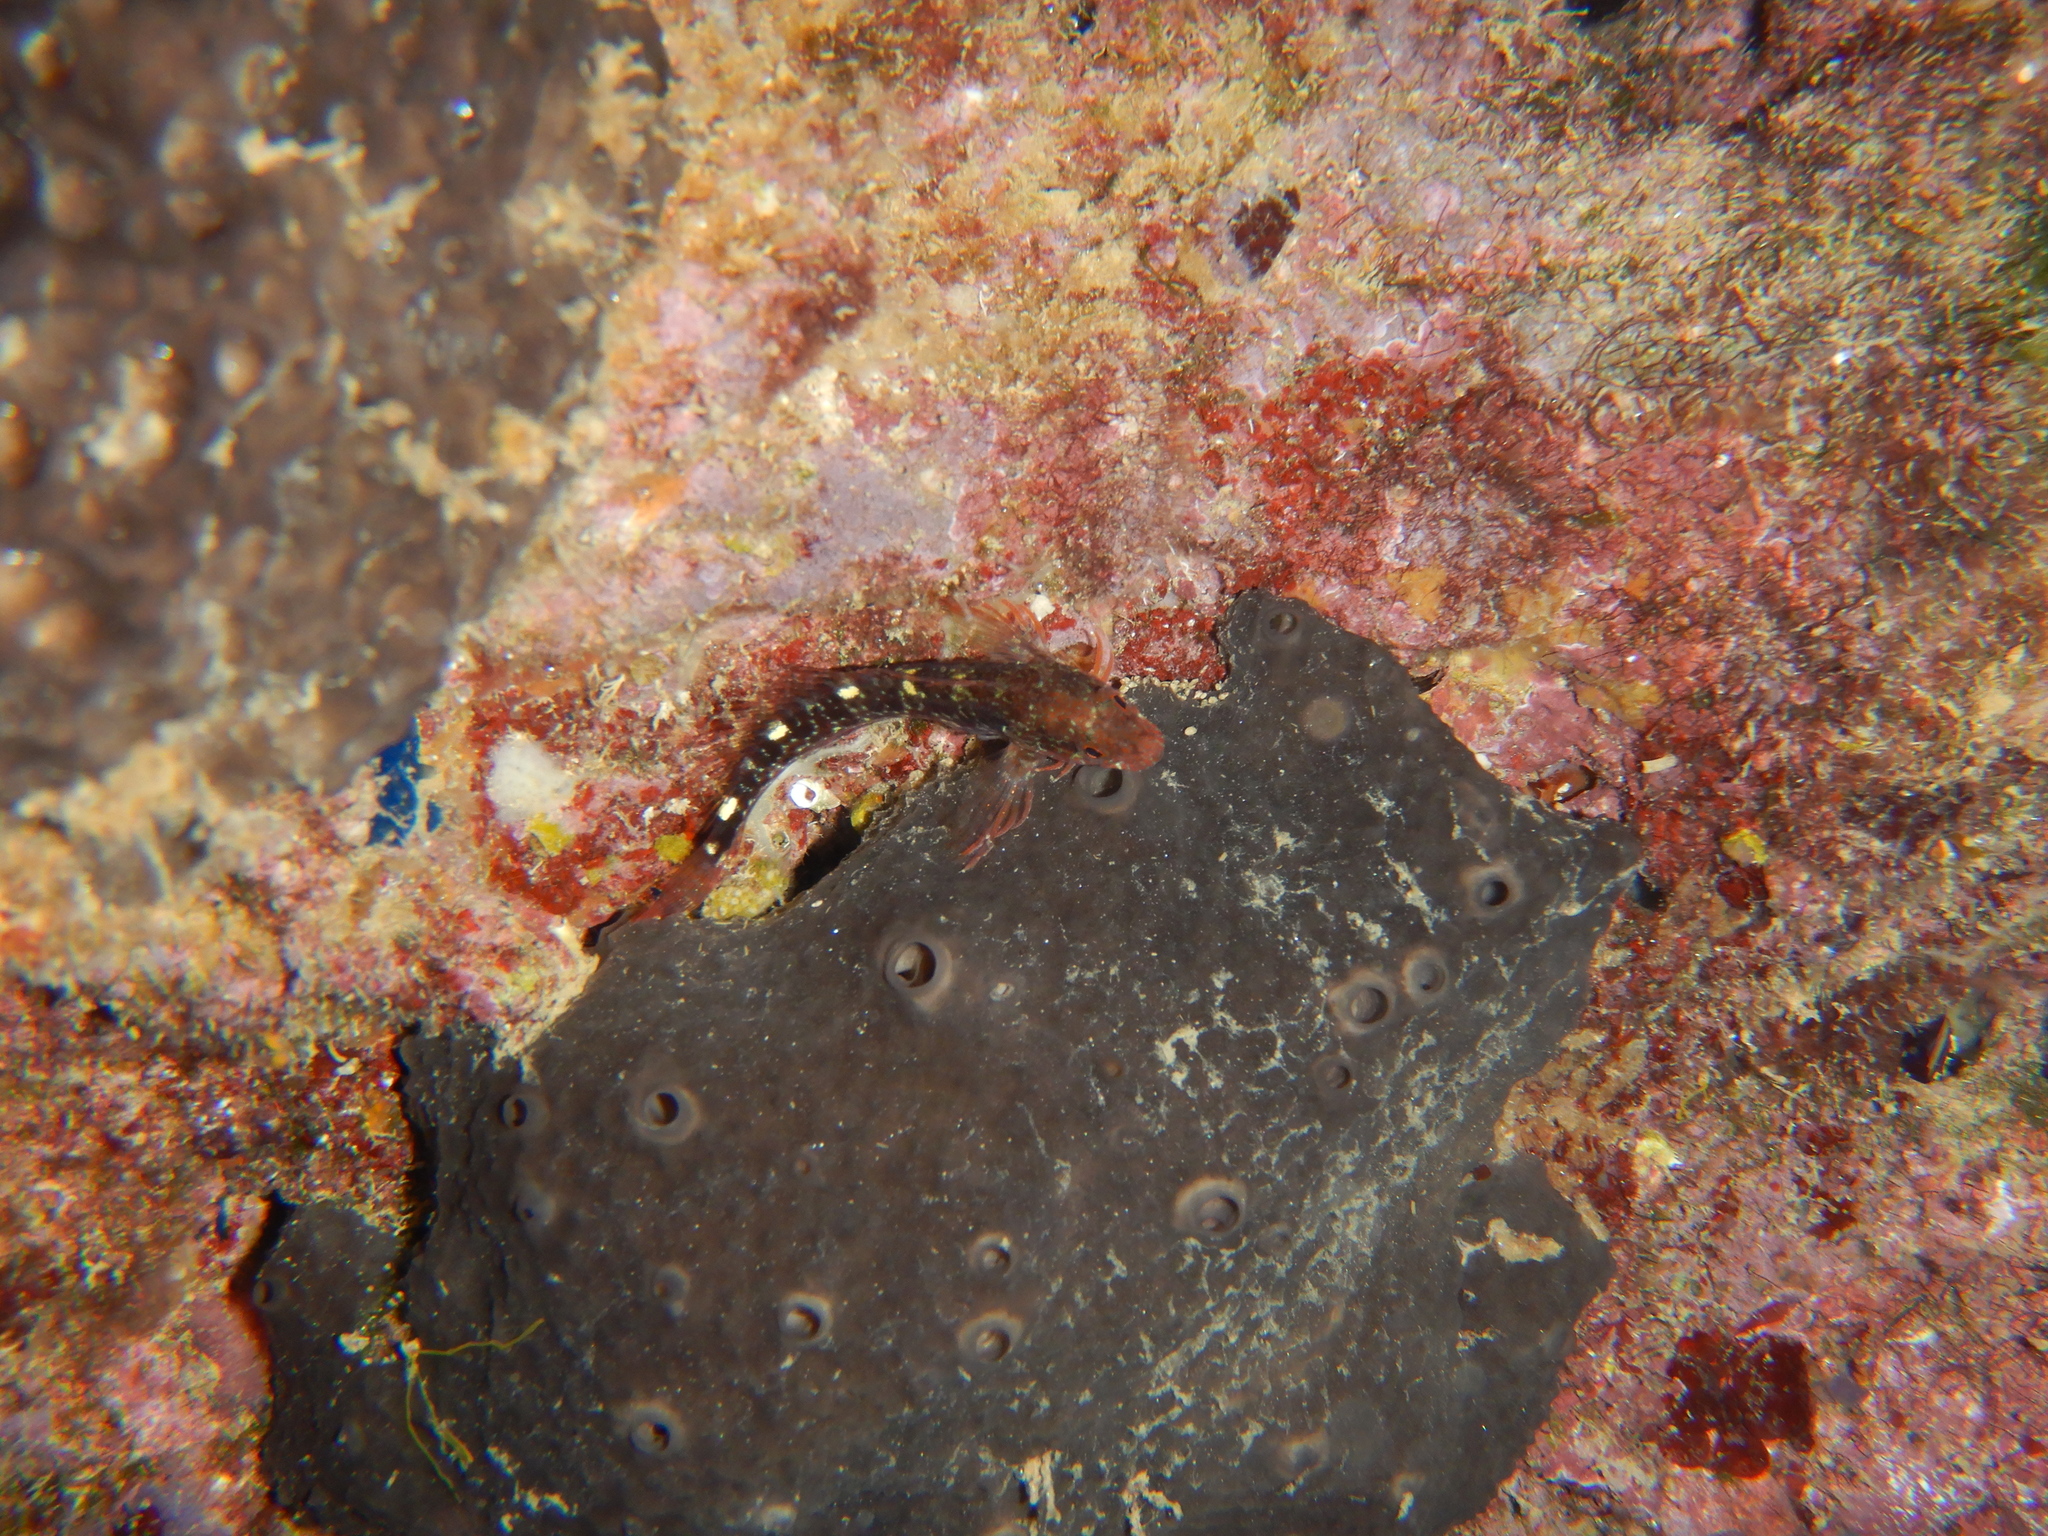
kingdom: Animalia
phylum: Porifera
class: Demospongiae
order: Dictyoceratida
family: Irciniidae
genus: Ircinia
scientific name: Ircinia oros
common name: Grey leather sponge
